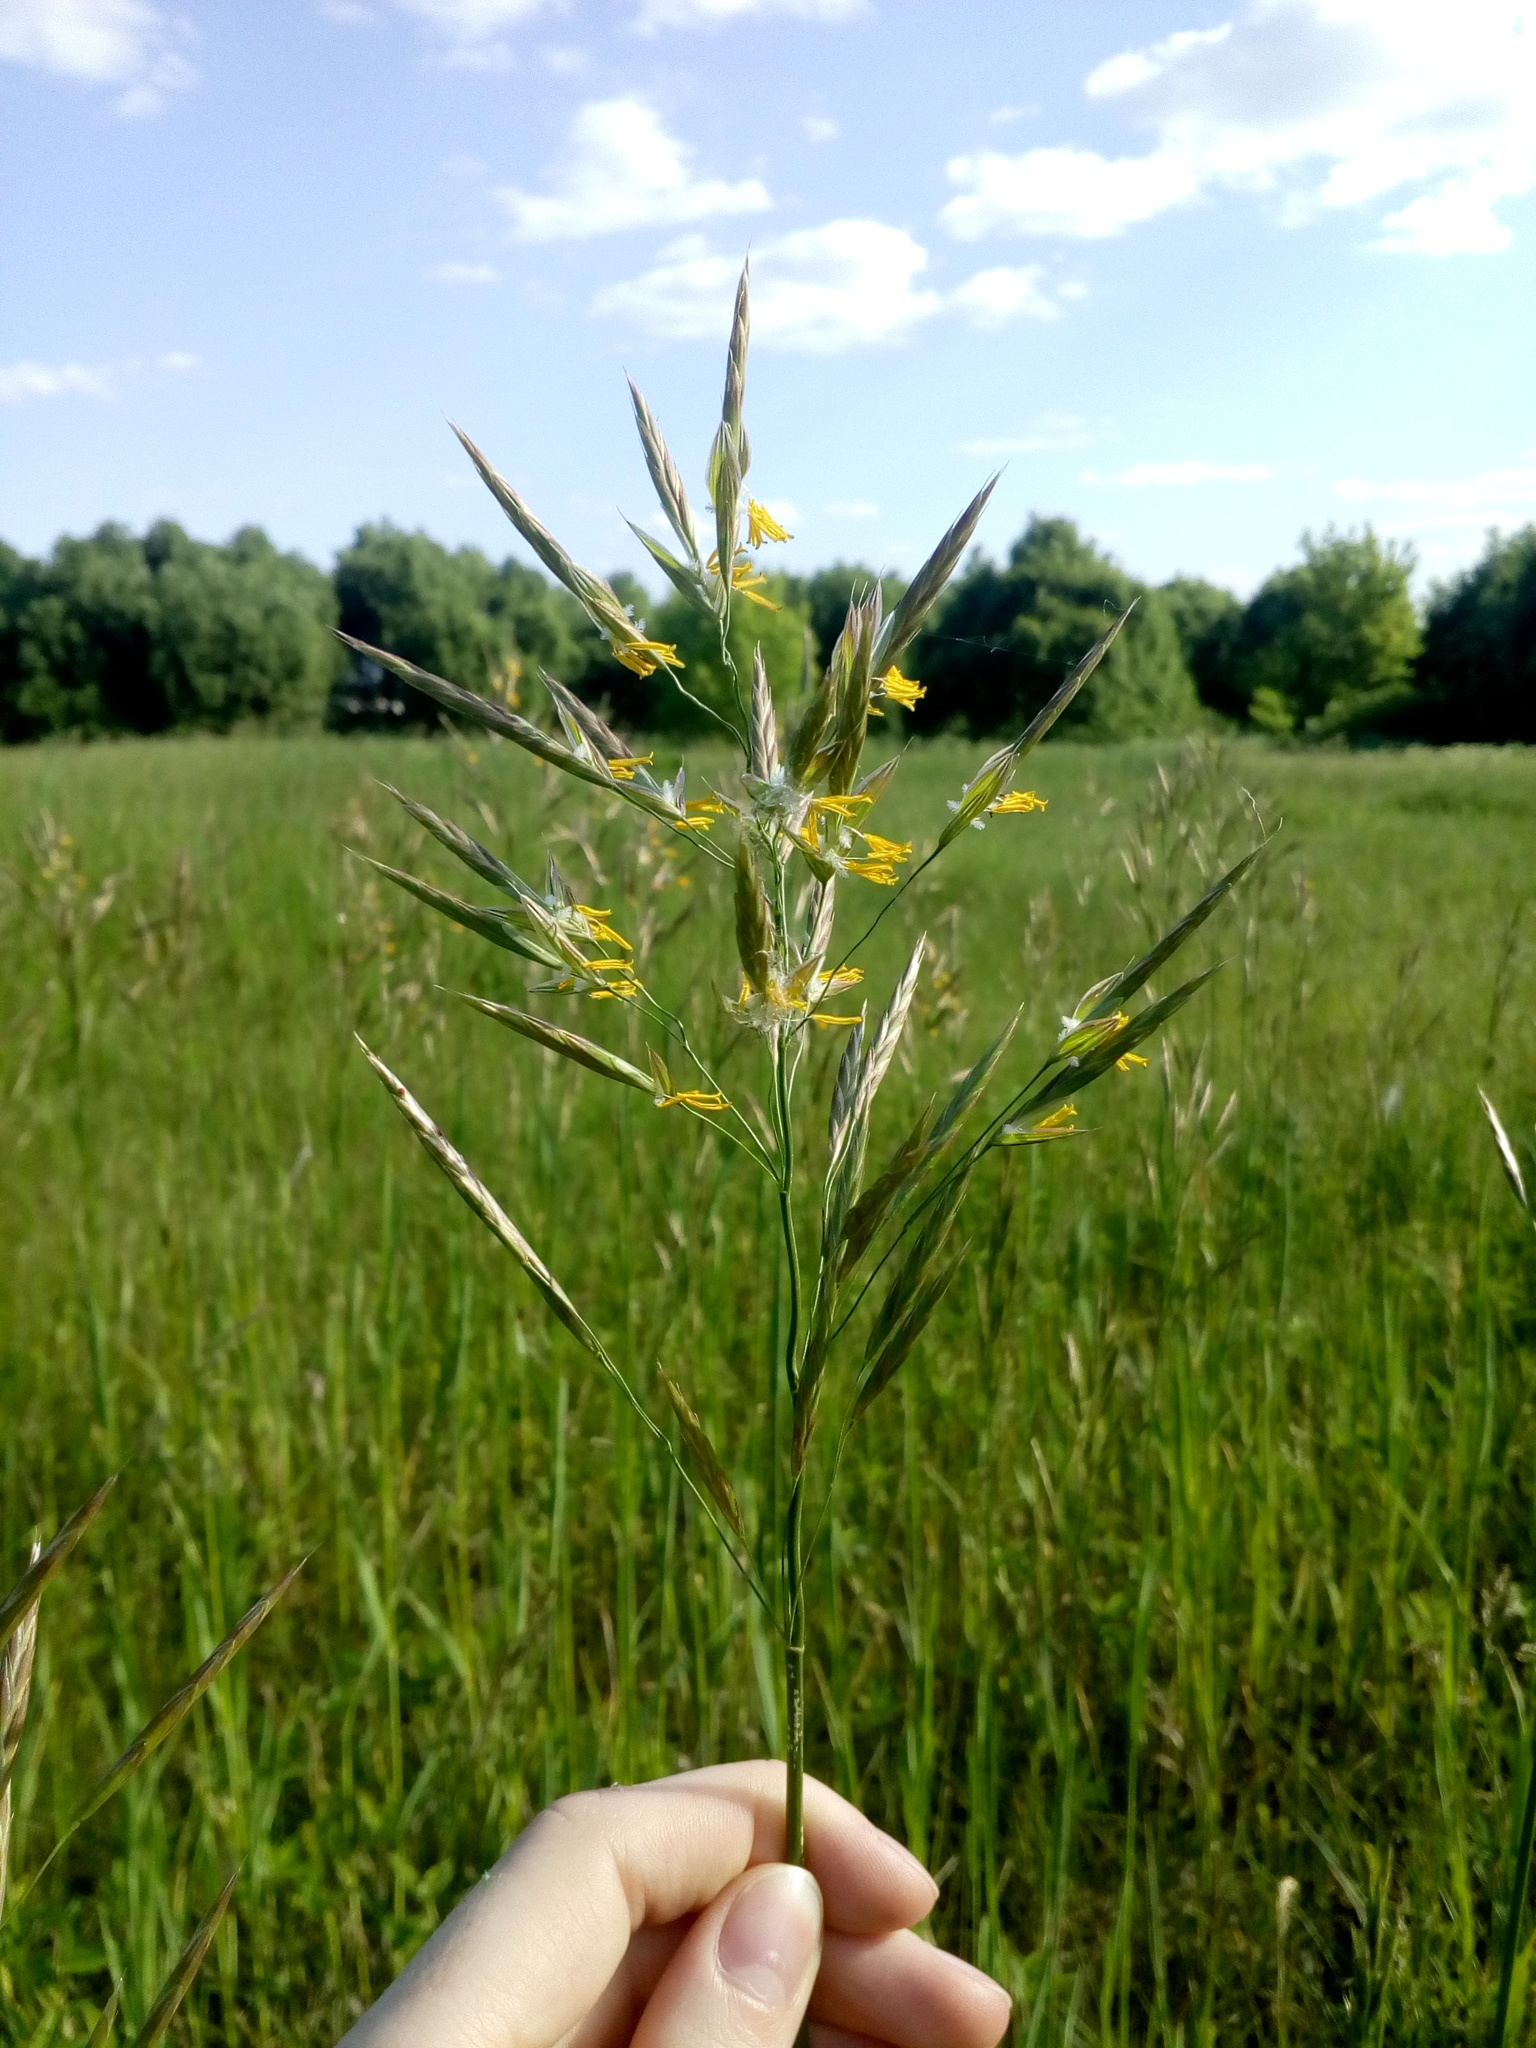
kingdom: Plantae
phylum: Tracheophyta
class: Liliopsida
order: Poales
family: Poaceae
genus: Bromus
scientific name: Bromus inermis
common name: Smooth brome
